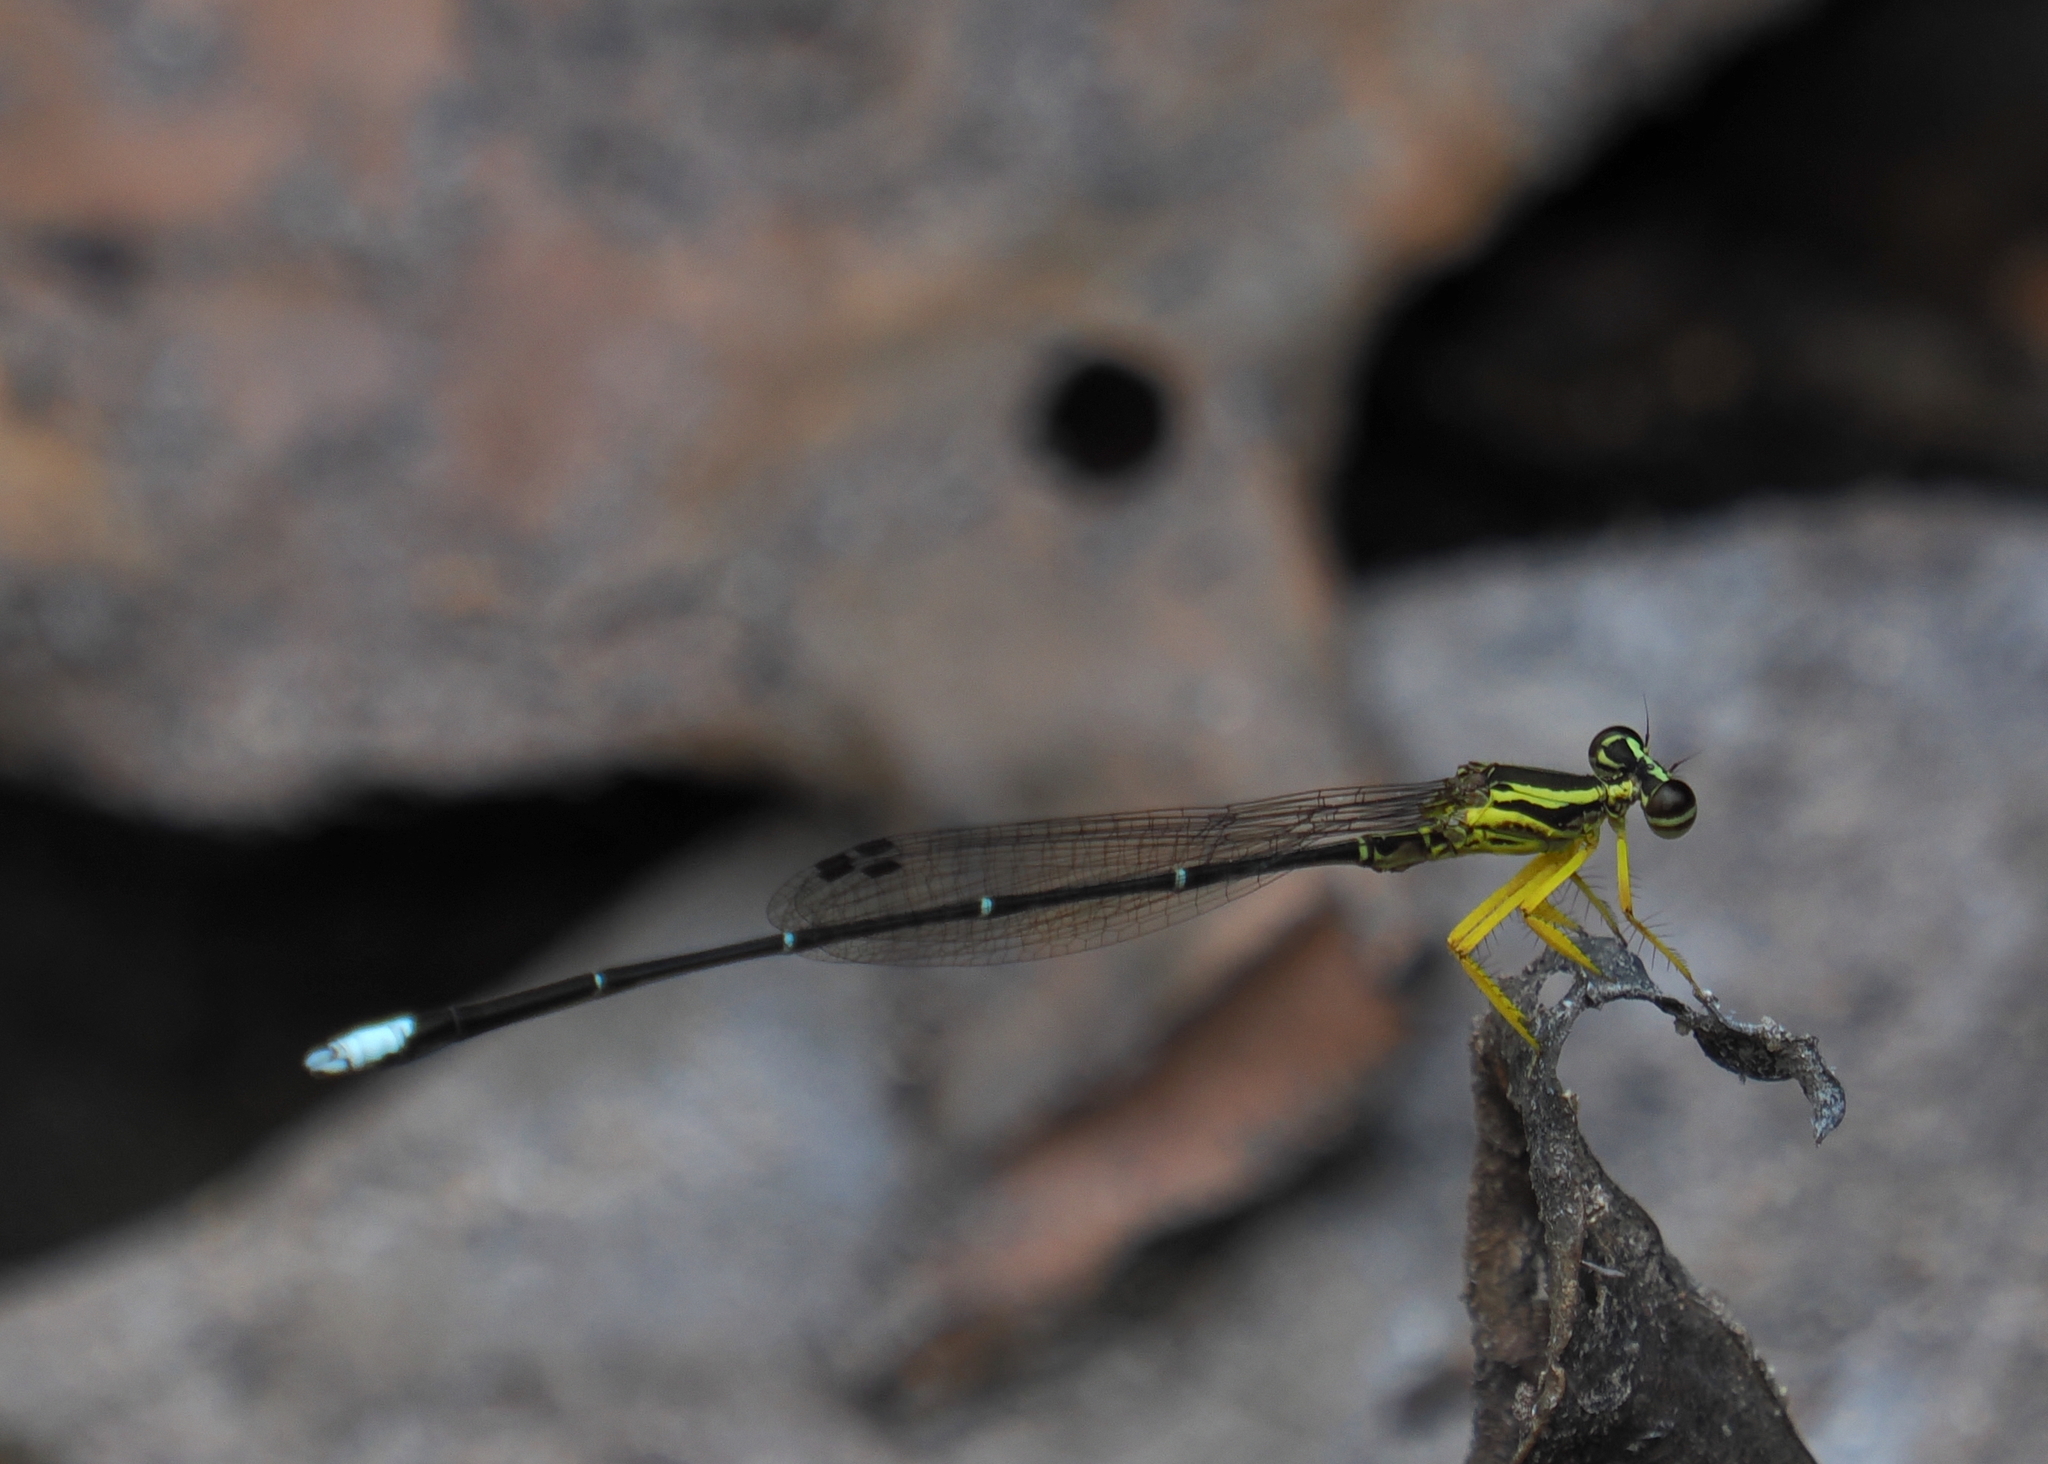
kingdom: Animalia
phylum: Arthropoda
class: Insecta
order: Odonata
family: Platycnemididae
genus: Copera
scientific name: Copera marginipes
